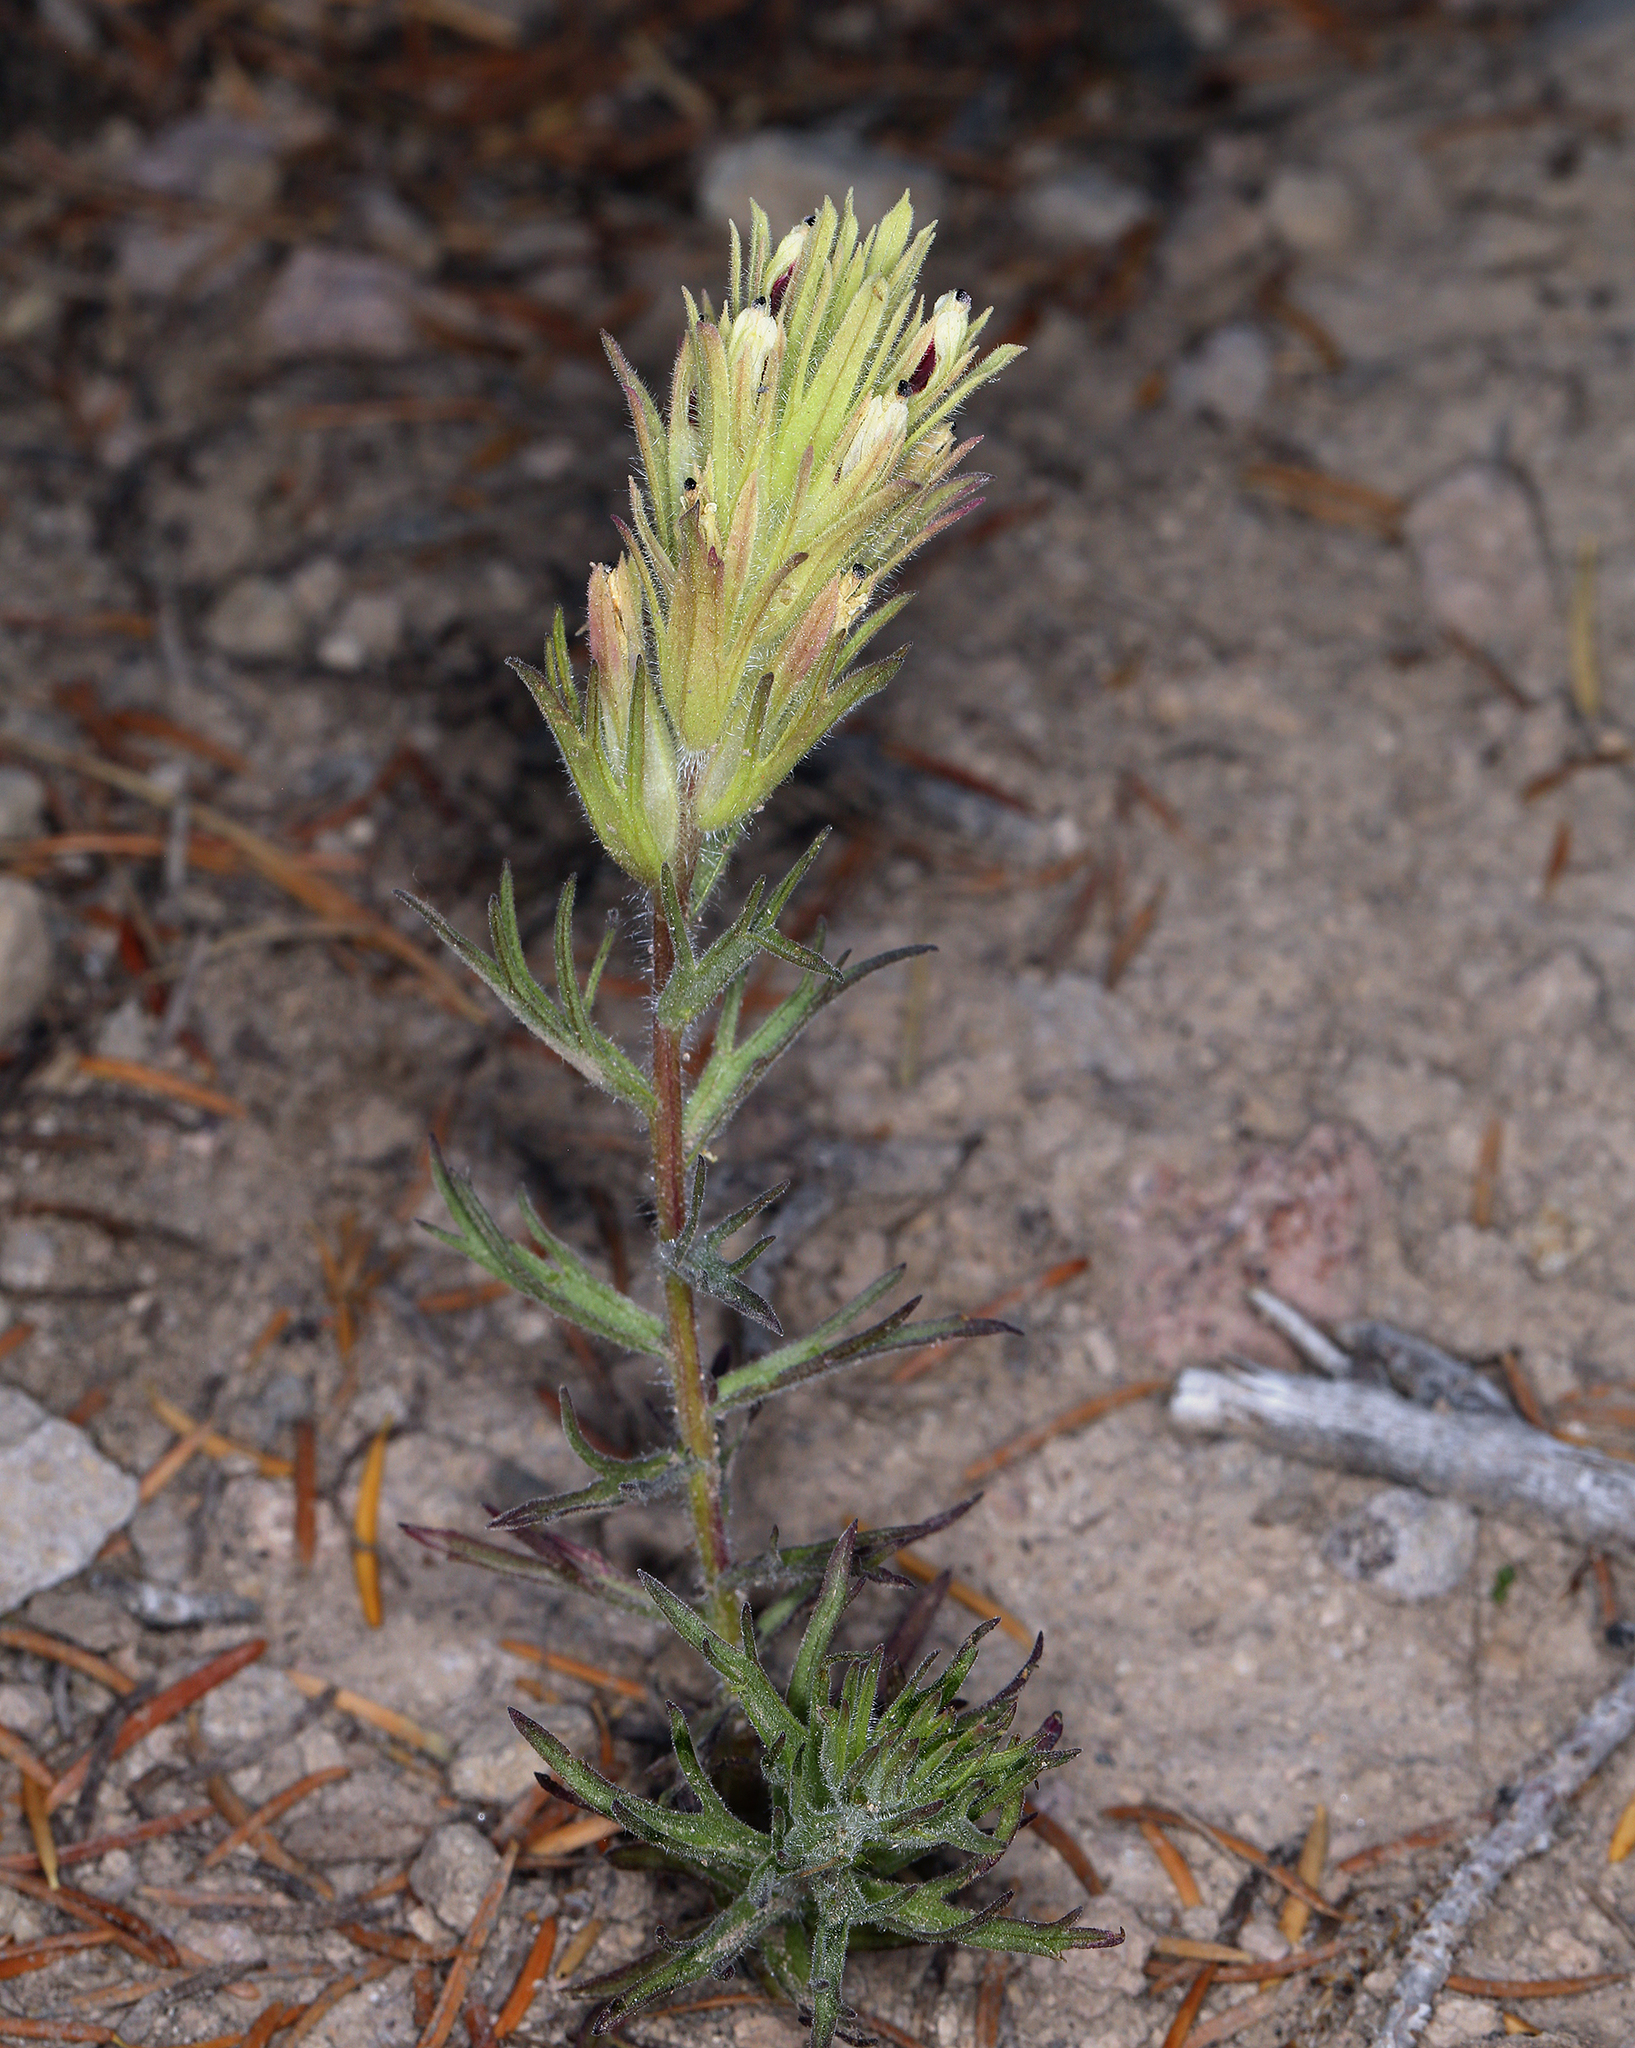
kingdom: Plantae
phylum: Tracheophyta
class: Magnoliopsida
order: Lamiales
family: Orobanchaceae
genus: Castilleja
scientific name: Castilleja nana
